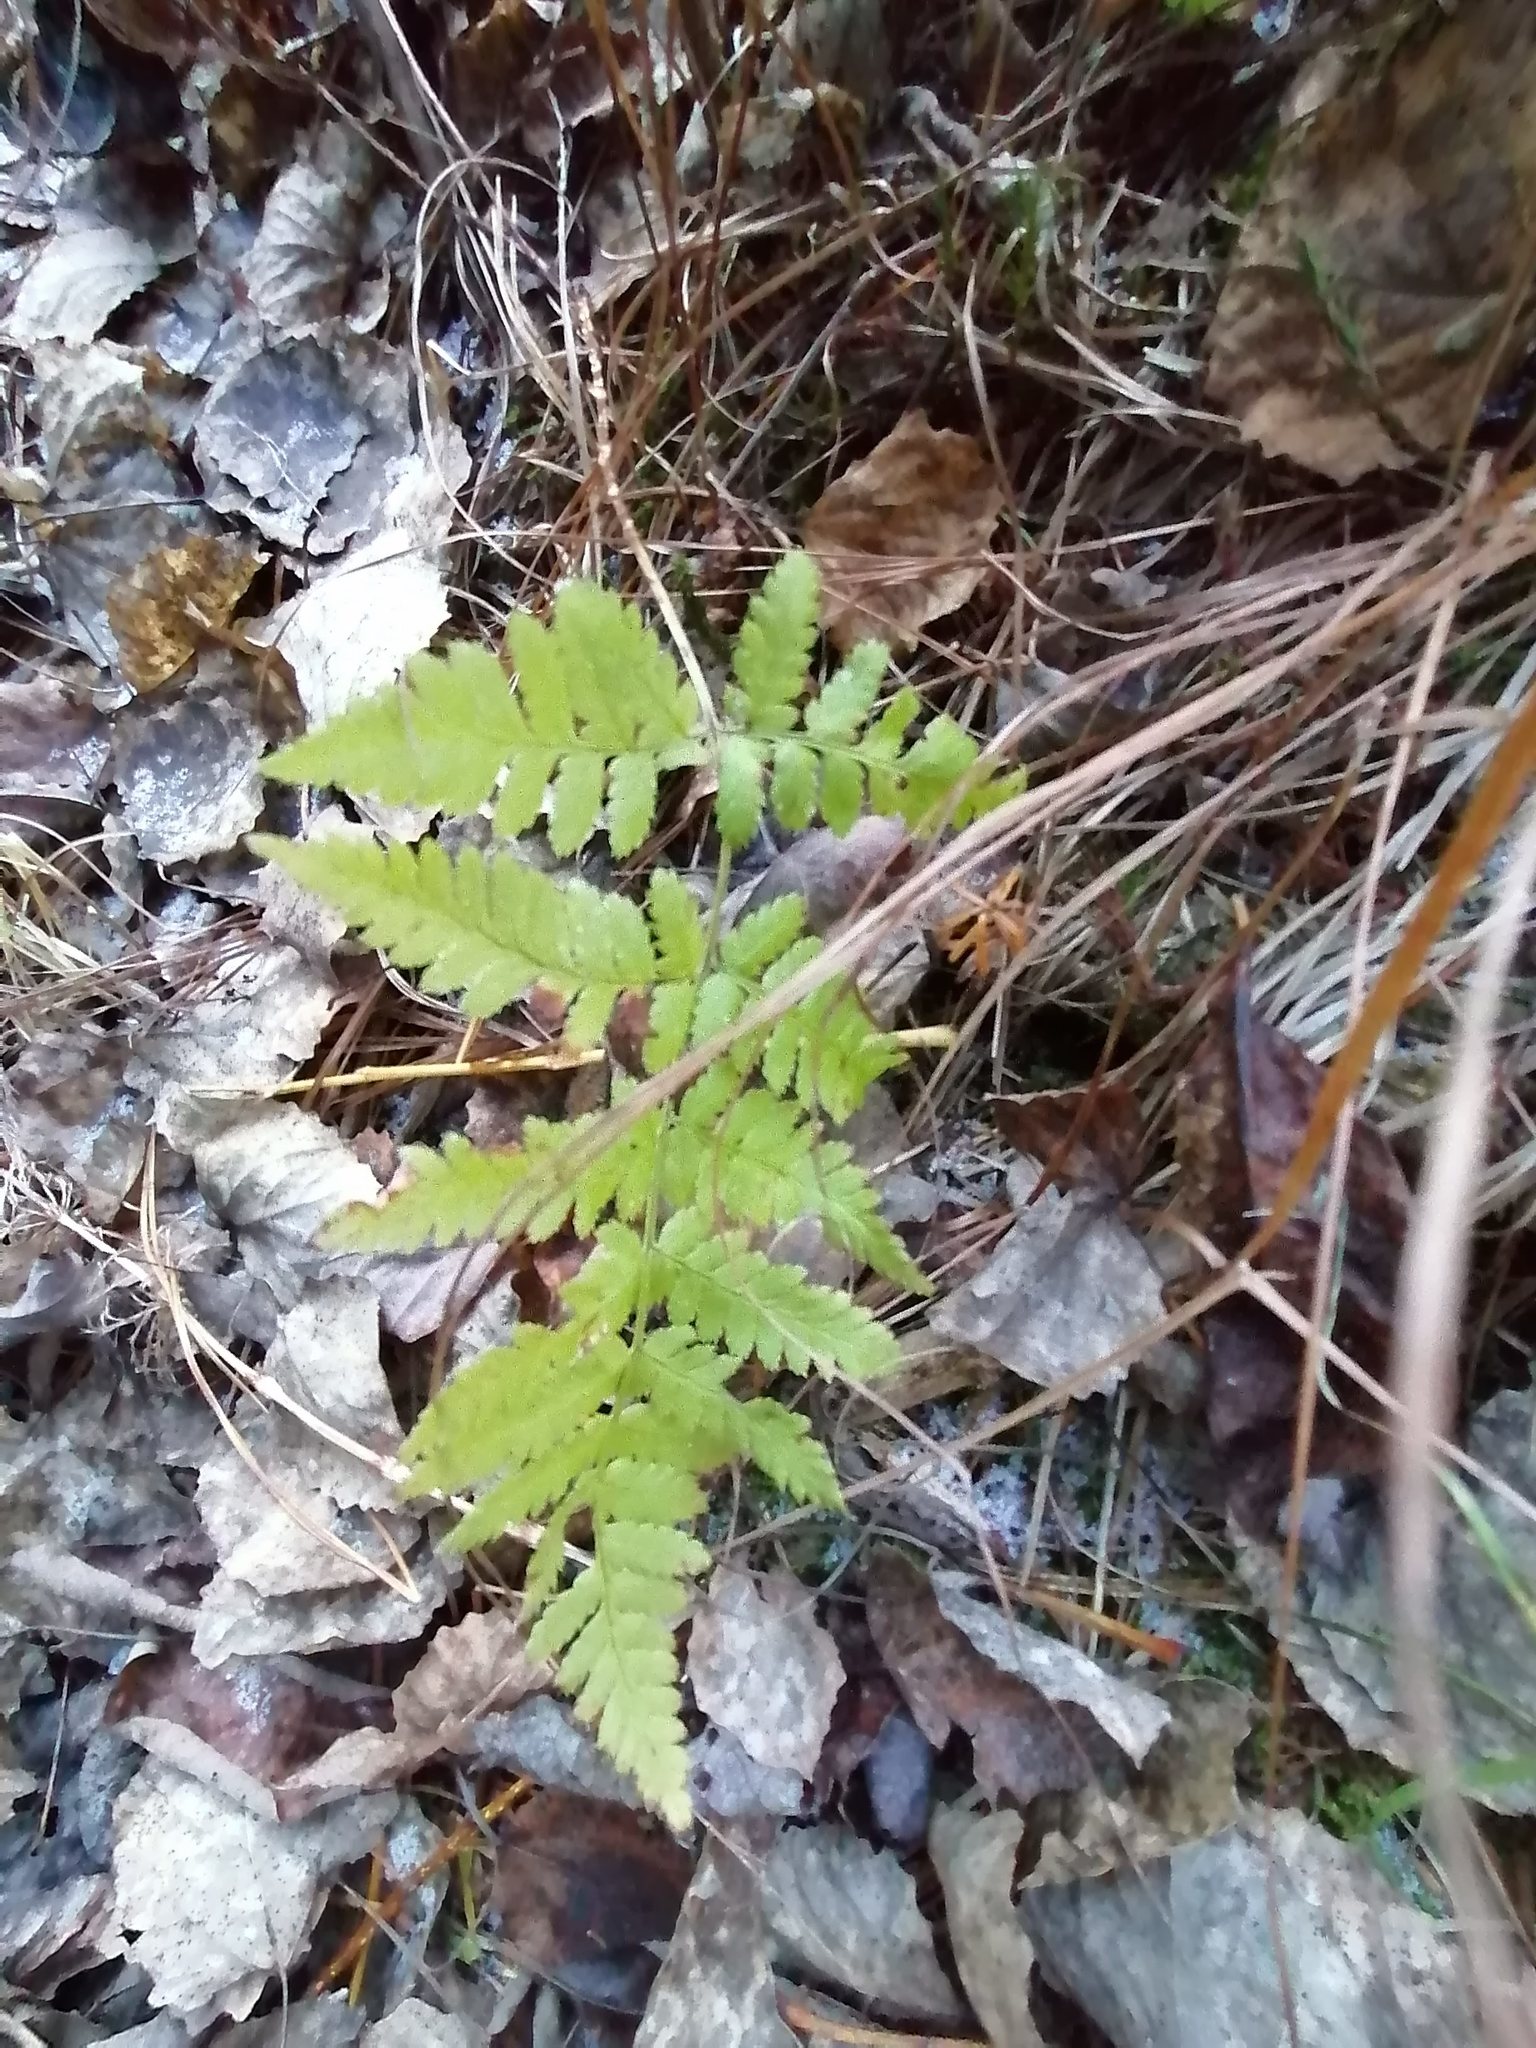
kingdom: Plantae
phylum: Tracheophyta
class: Polypodiopsida
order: Polypodiales
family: Dryopteridaceae
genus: Dryopteris
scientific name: Dryopteris carthusiana
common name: Narrow buckler-fern
